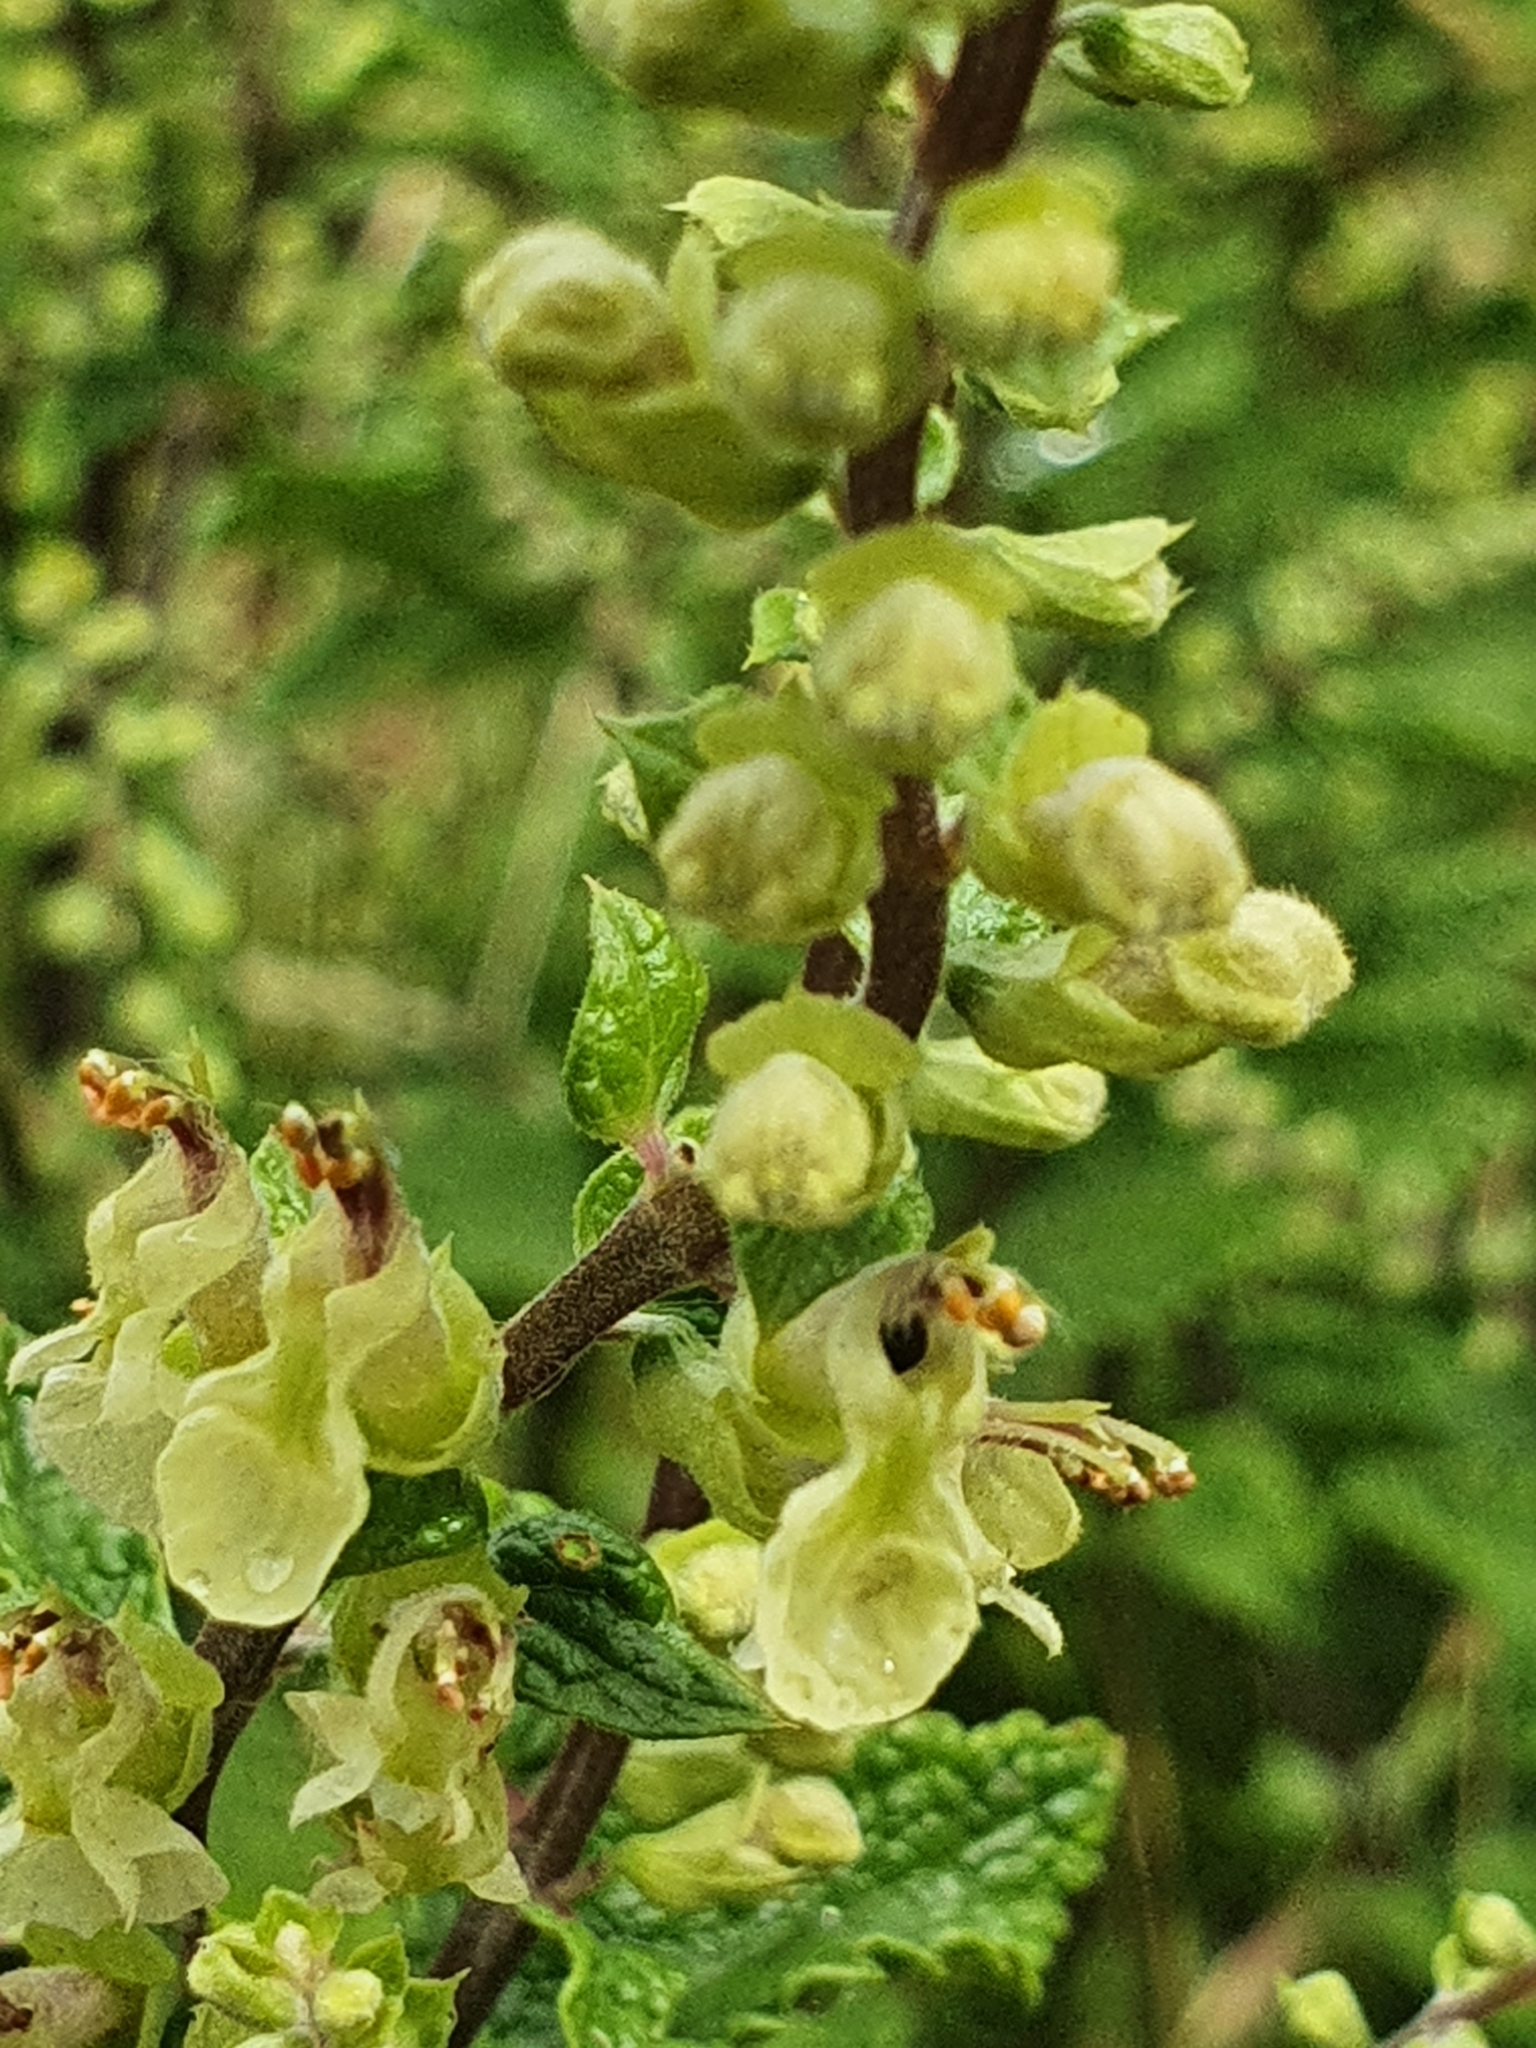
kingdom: Plantae
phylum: Tracheophyta
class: Magnoliopsida
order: Lamiales
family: Lamiaceae
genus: Teucrium
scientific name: Teucrium scorodonia
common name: Woodland germander
